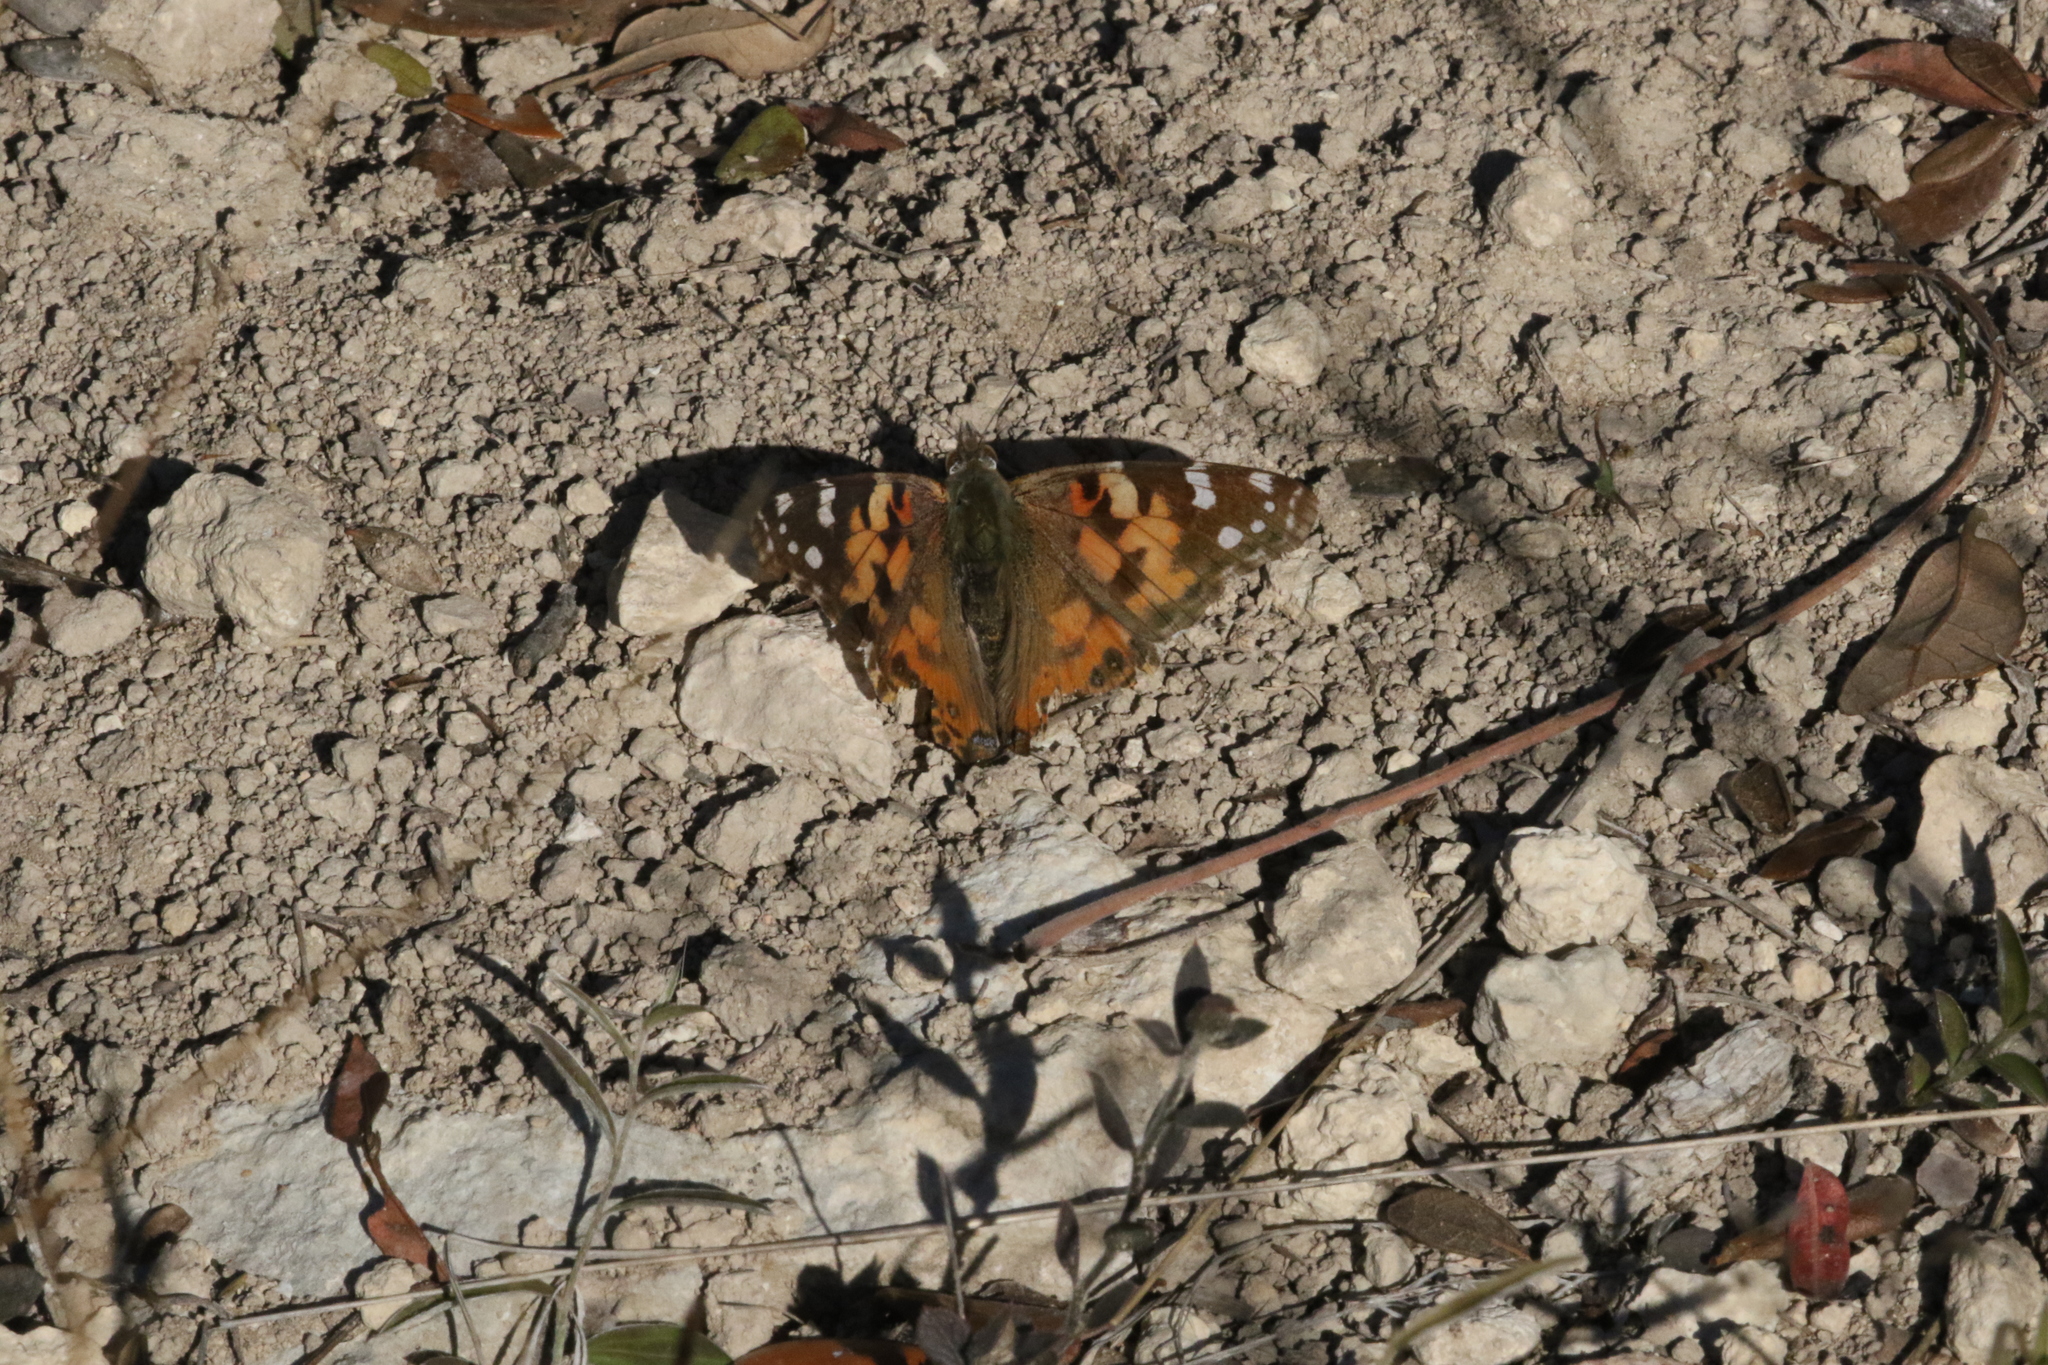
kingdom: Animalia
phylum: Arthropoda
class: Insecta
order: Lepidoptera
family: Nymphalidae
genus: Vanessa
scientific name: Vanessa cardui
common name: Painted lady
